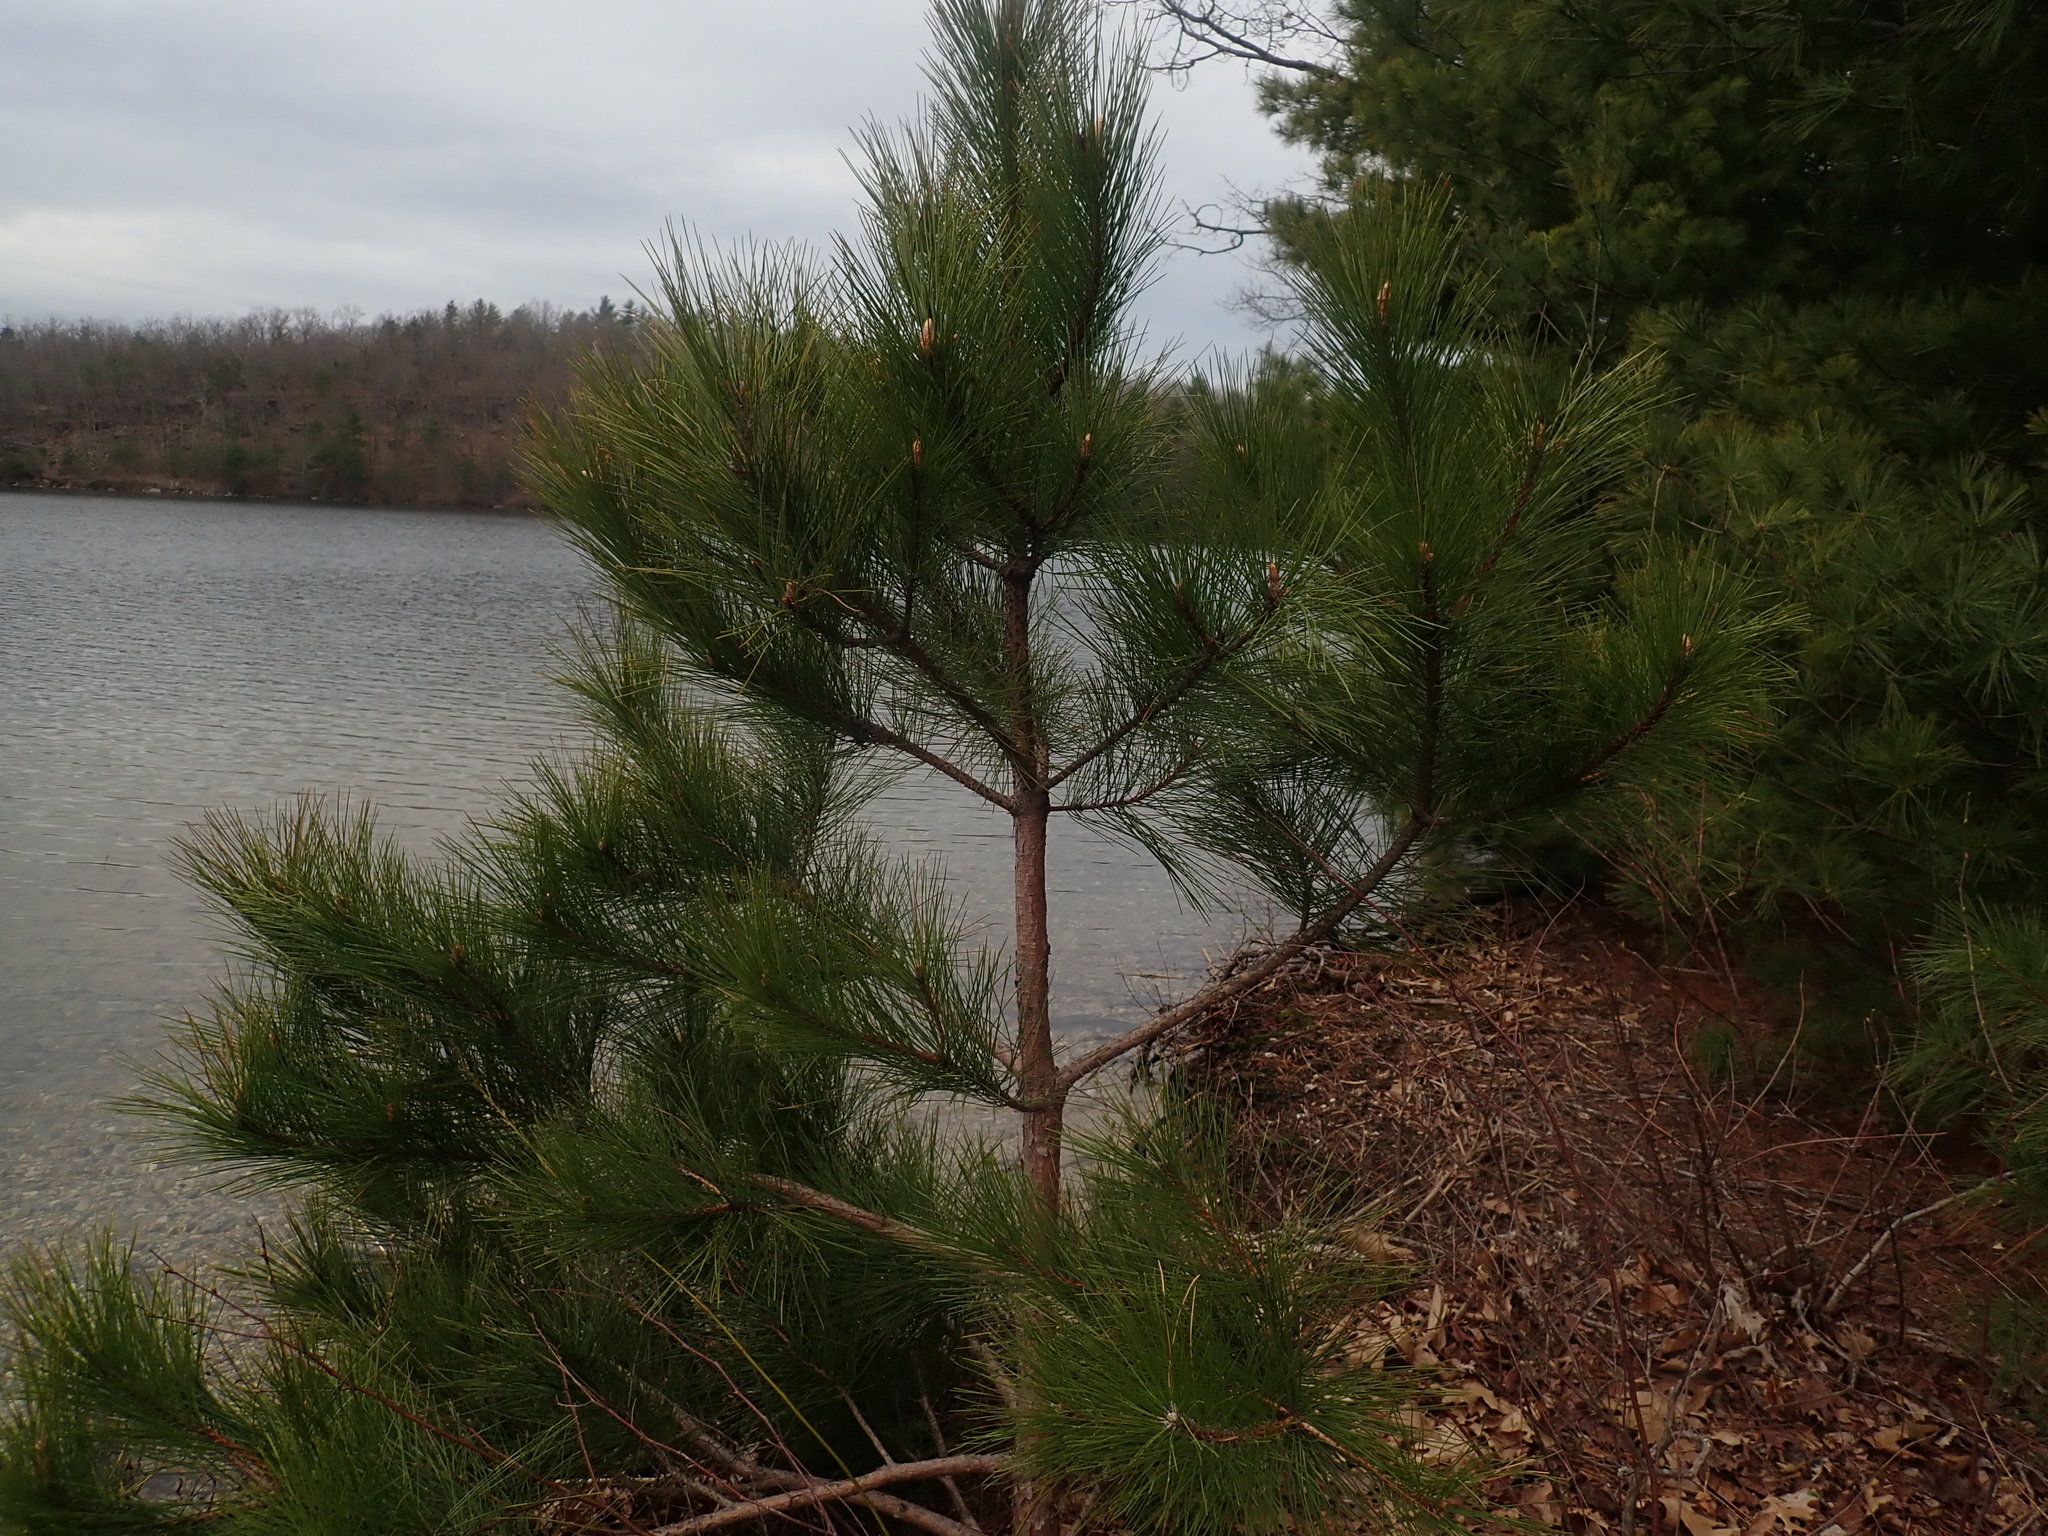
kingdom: Plantae
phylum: Tracheophyta
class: Pinopsida
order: Pinales
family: Pinaceae
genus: Pinus
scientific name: Pinus resinosa
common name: Norway pine
